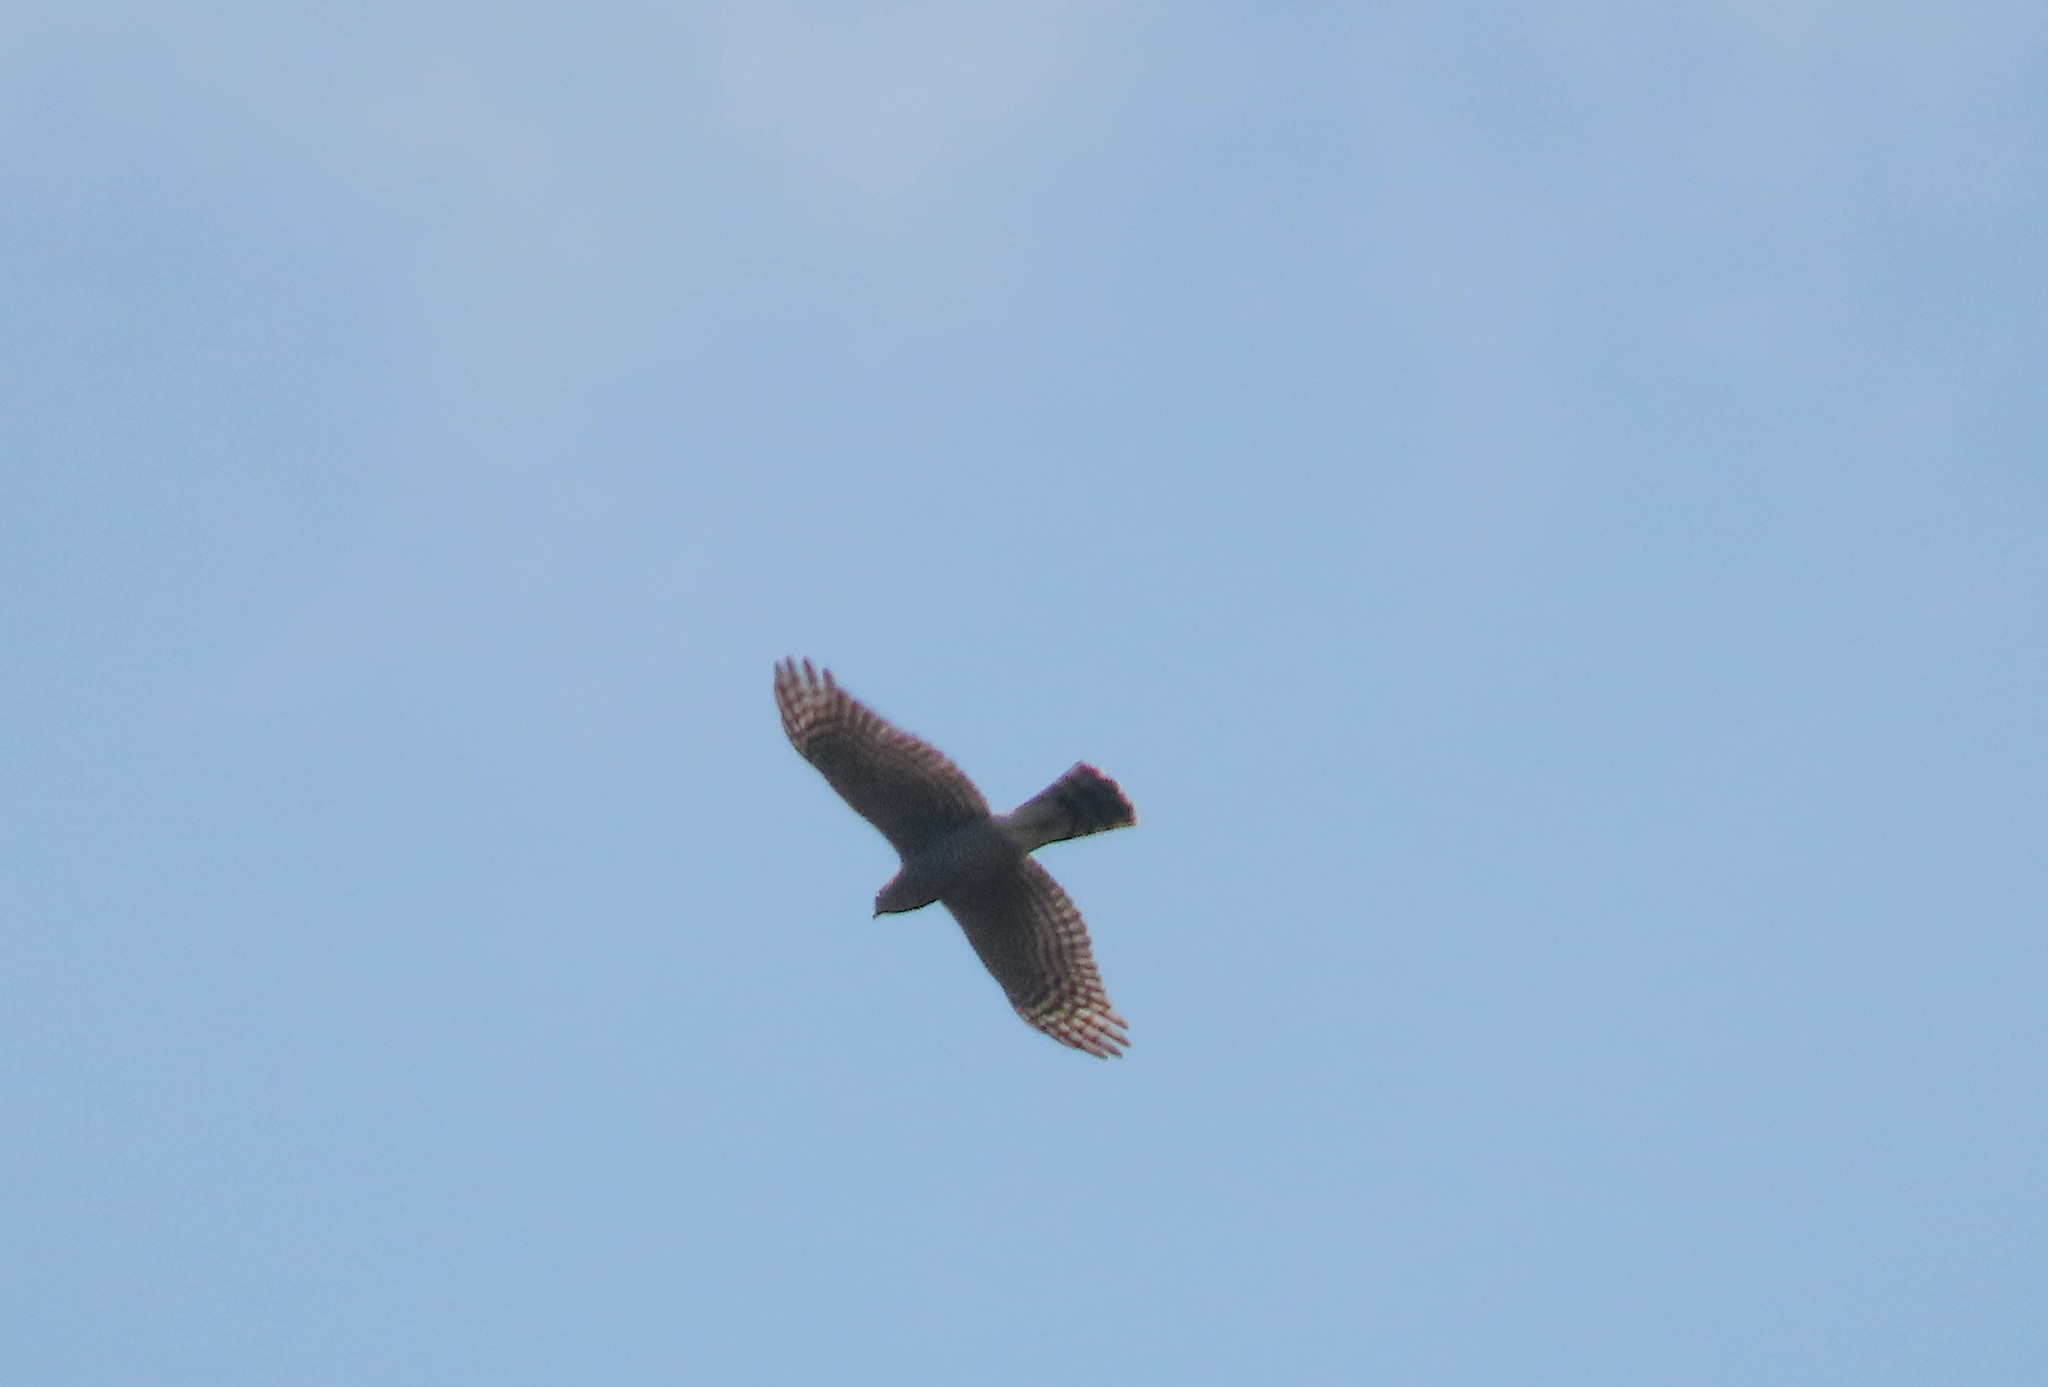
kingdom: Animalia
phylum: Chordata
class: Aves
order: Accipitriformes
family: Accipitridae
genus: Accipiter
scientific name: Accipiter nisus
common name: Eurasian sparrowhawk
